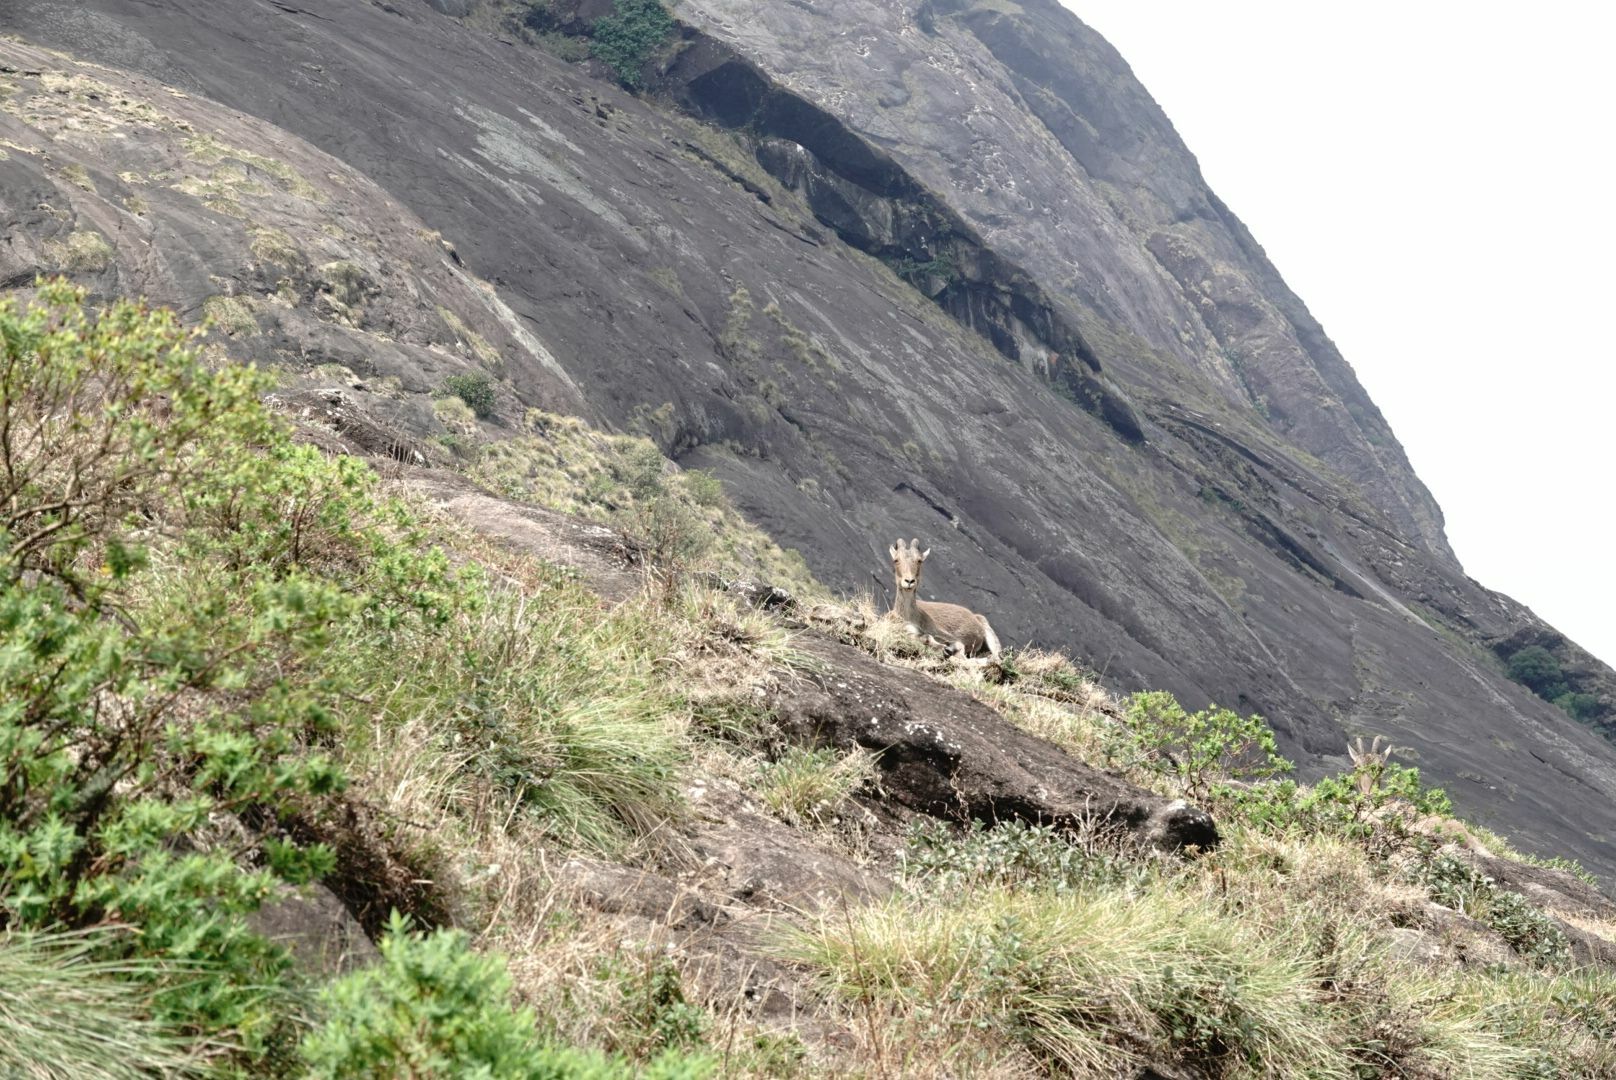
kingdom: Animalia
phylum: Chordata
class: Mammalia
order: Artiodactyla
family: Bovidae
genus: Hemitragus
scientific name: Hemitragus hylocrius
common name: Nilgiri tahr
